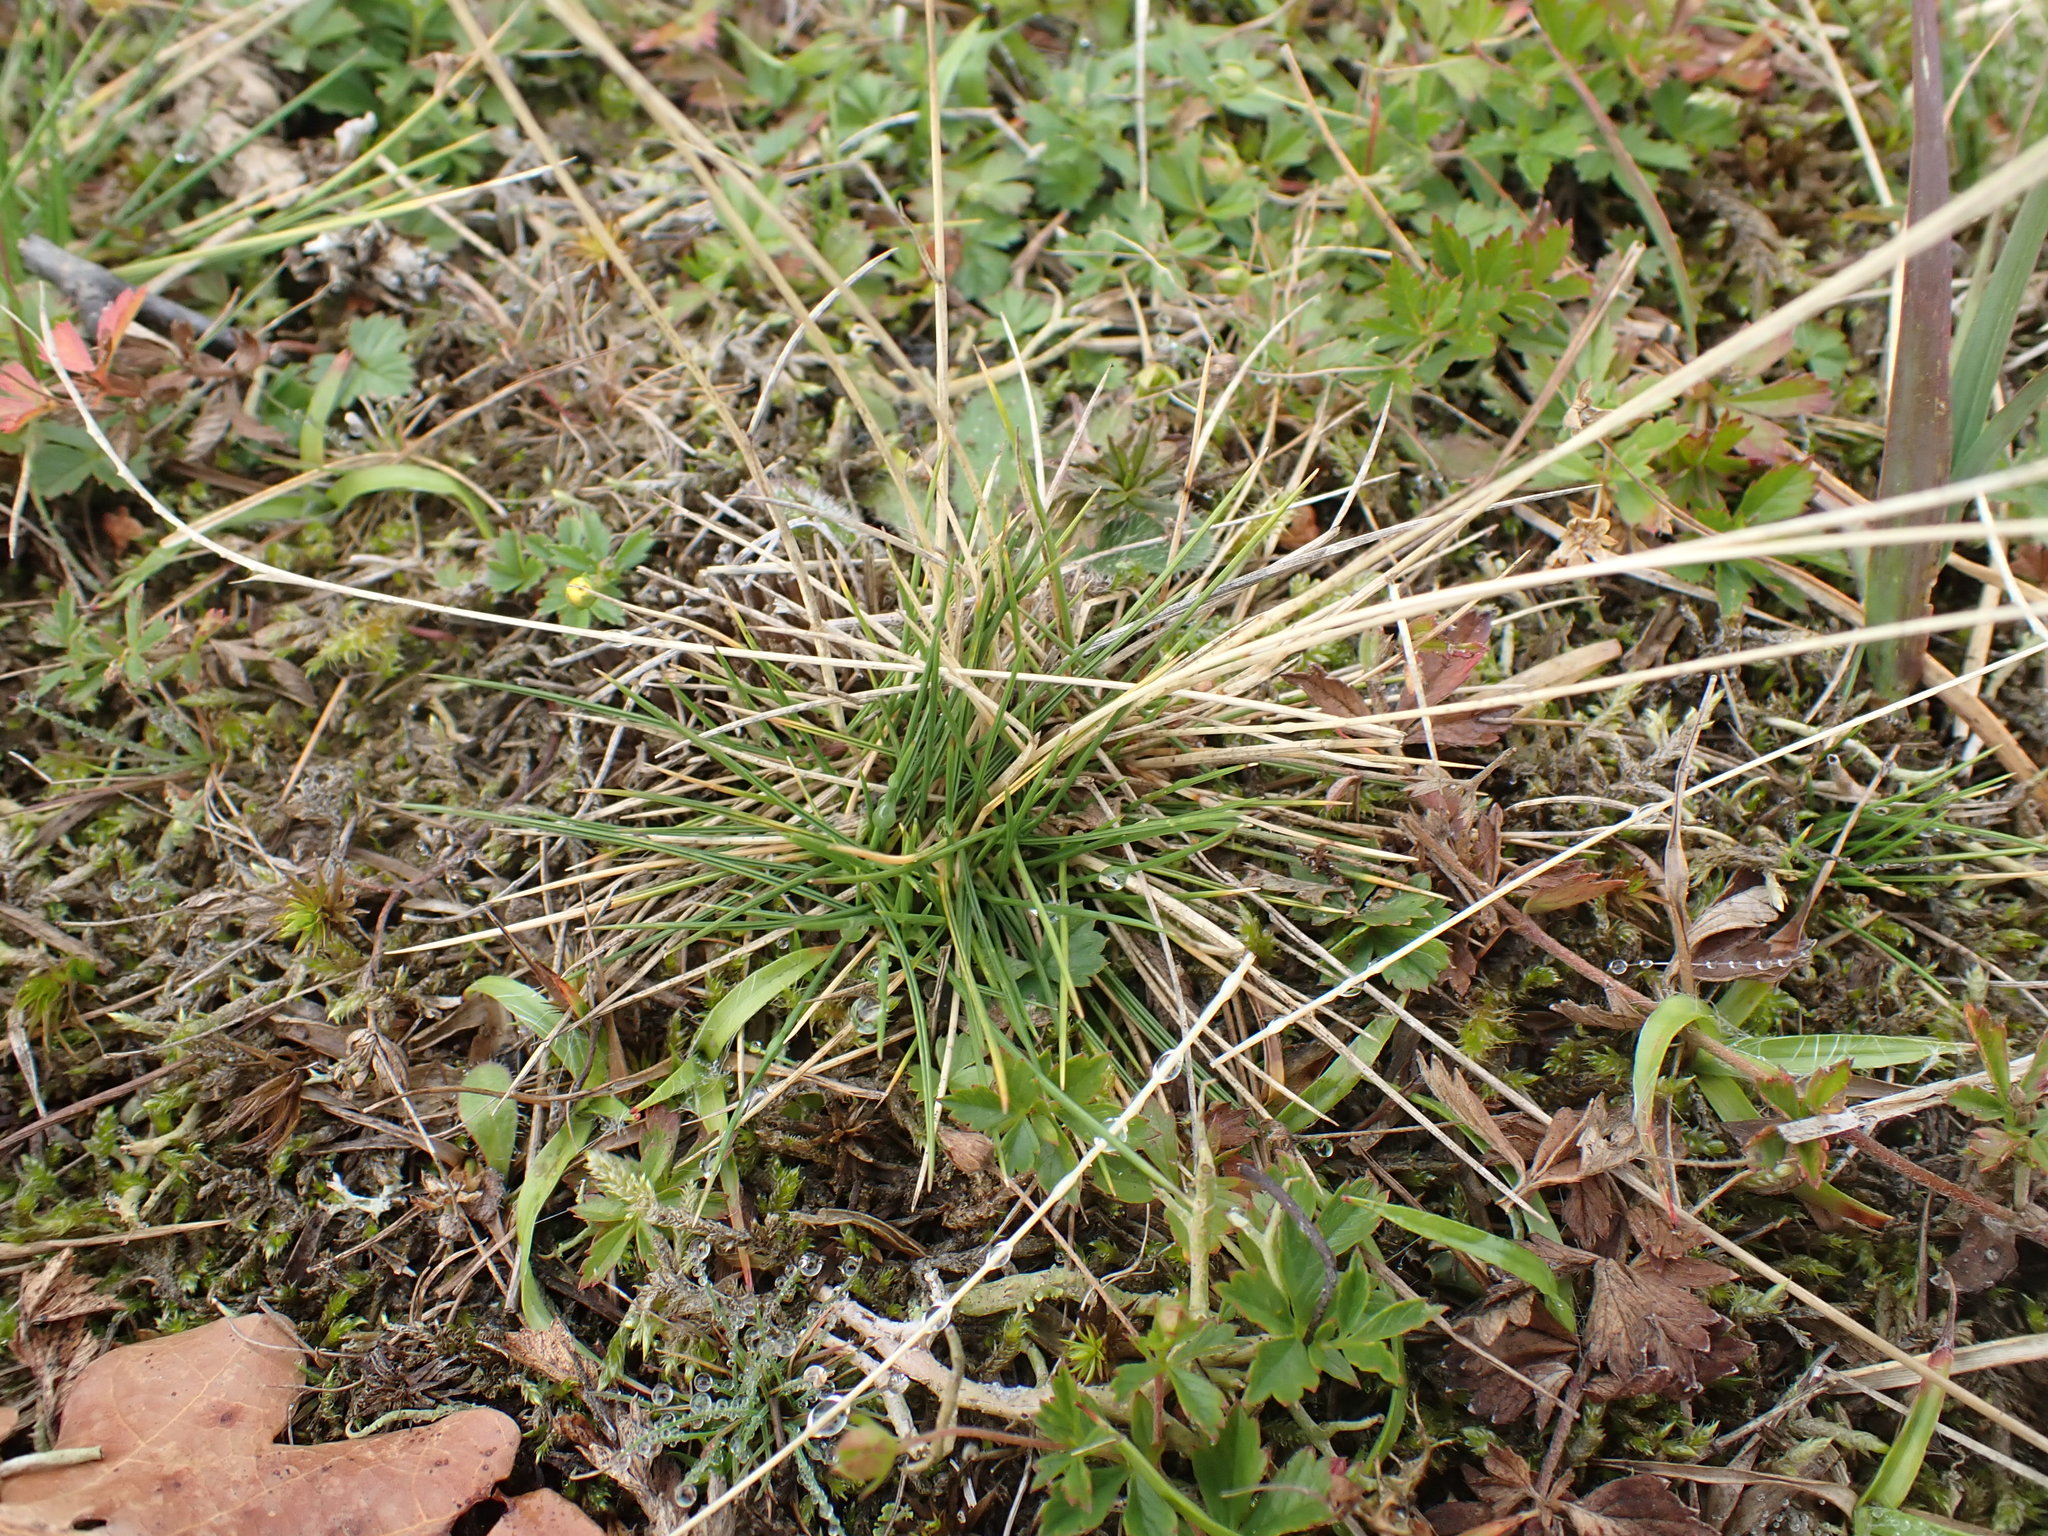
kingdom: Plantae
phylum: Tracheophyta
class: Liliopsida
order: Poales
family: Poaceae
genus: Nardus
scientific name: Nardus stricta
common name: Mat-grass
